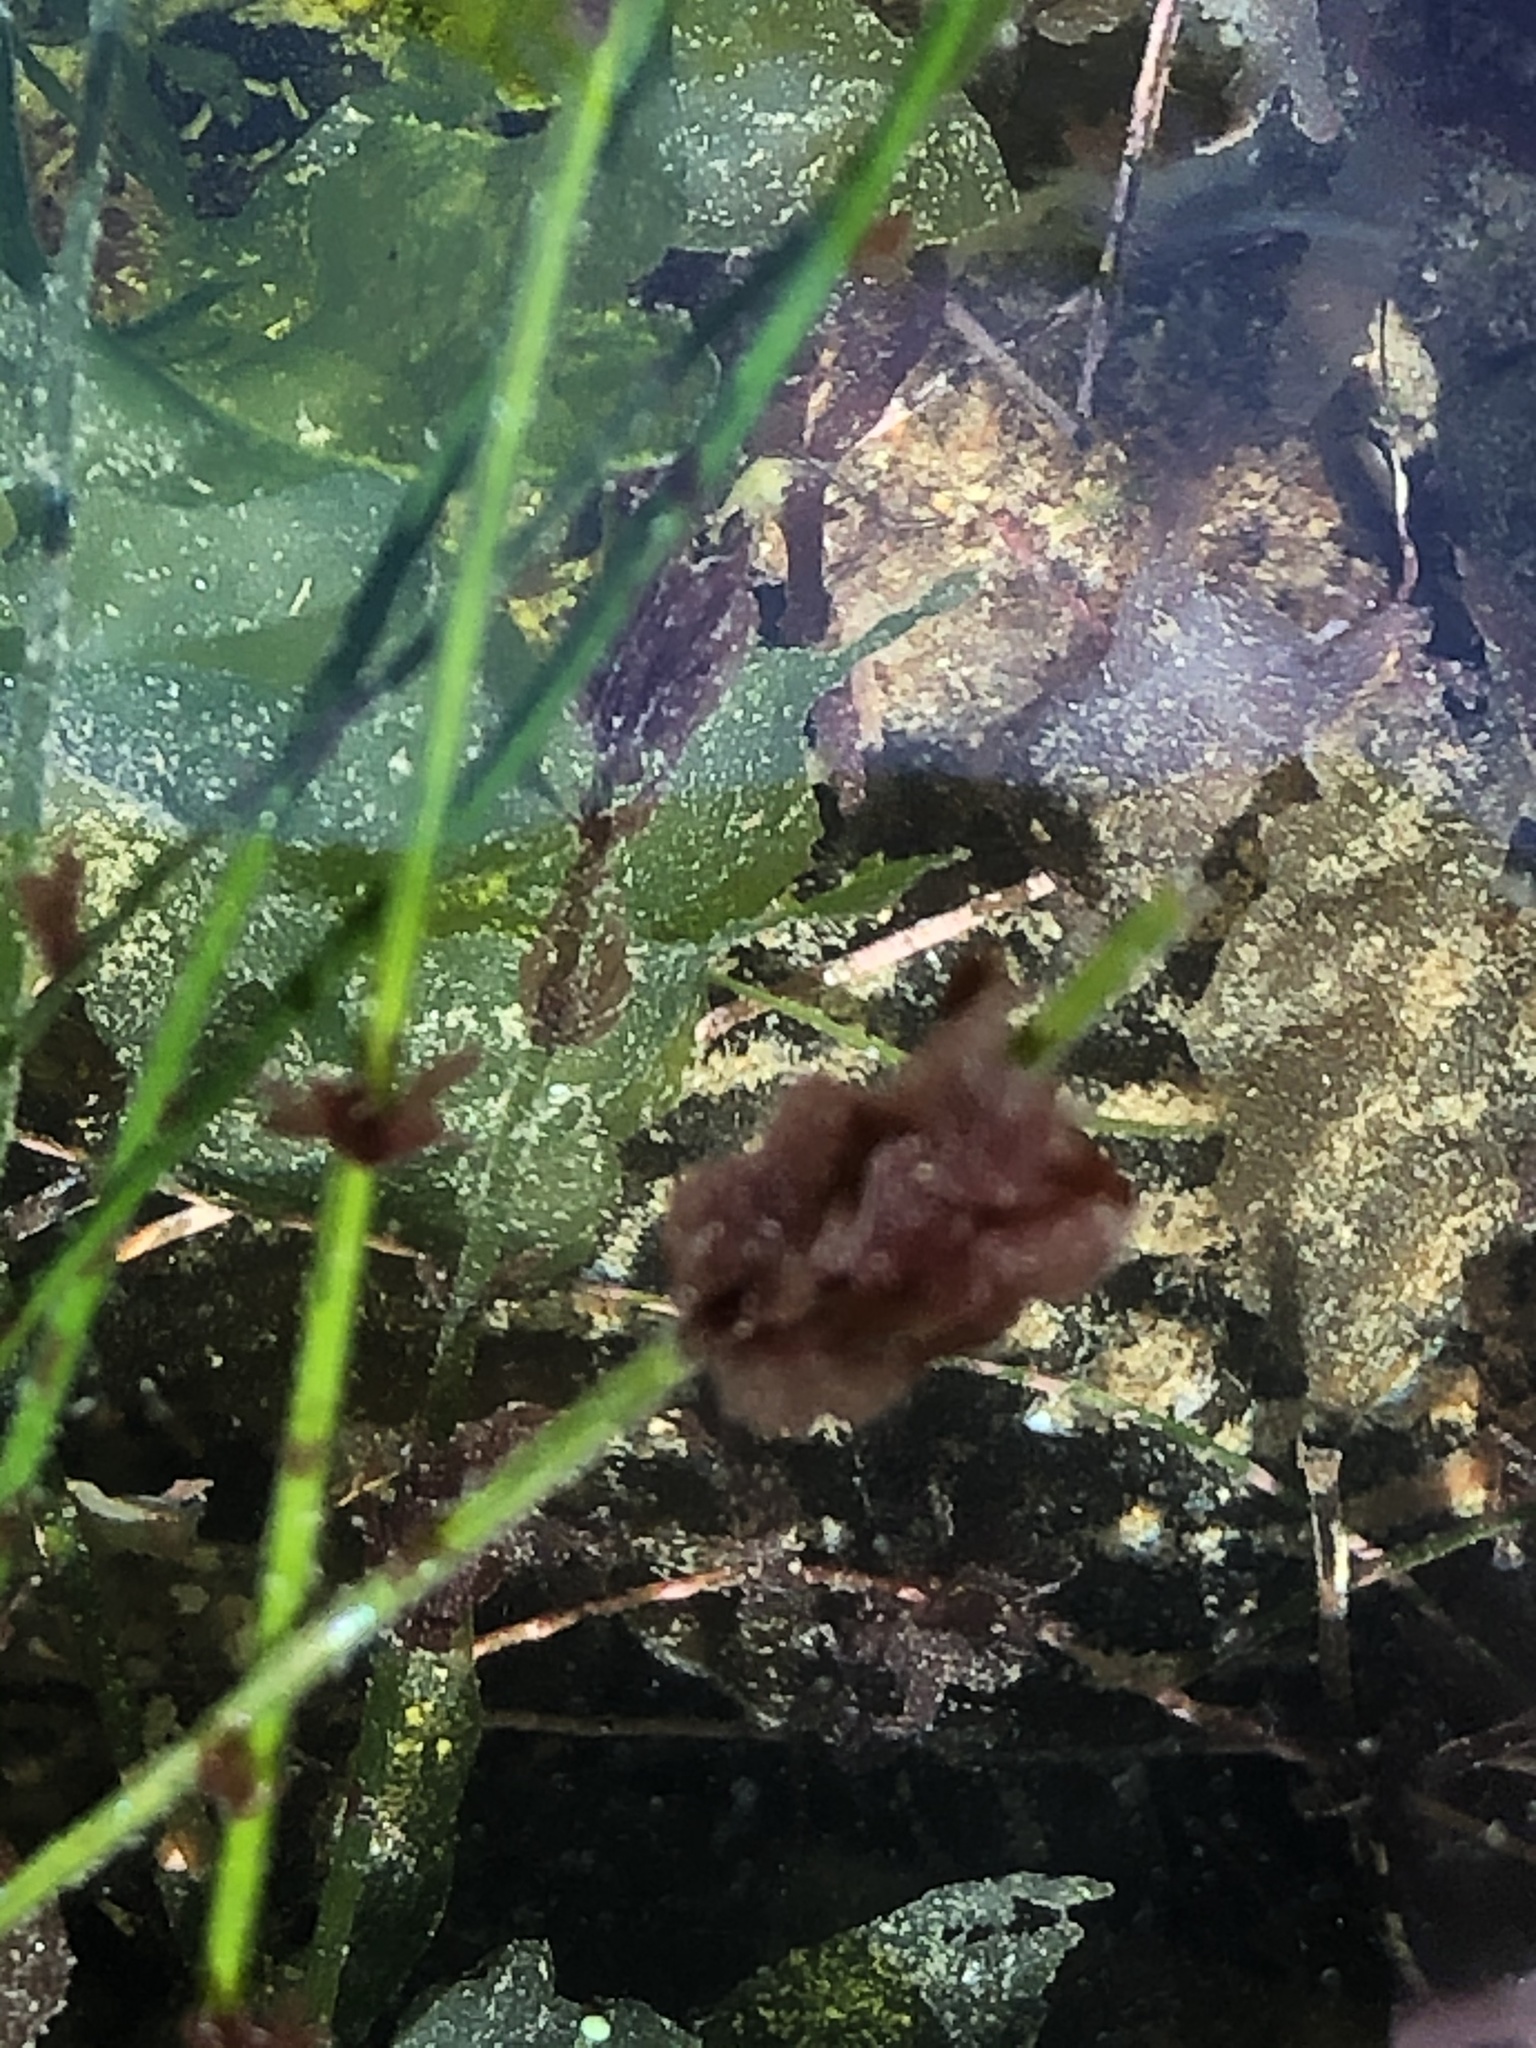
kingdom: Plantae
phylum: Rhodophyta
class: Compsopogonophyceae
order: Erythropeltidales
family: Erythrotrichiaceae
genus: Smithora
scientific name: Smithora naiadum
